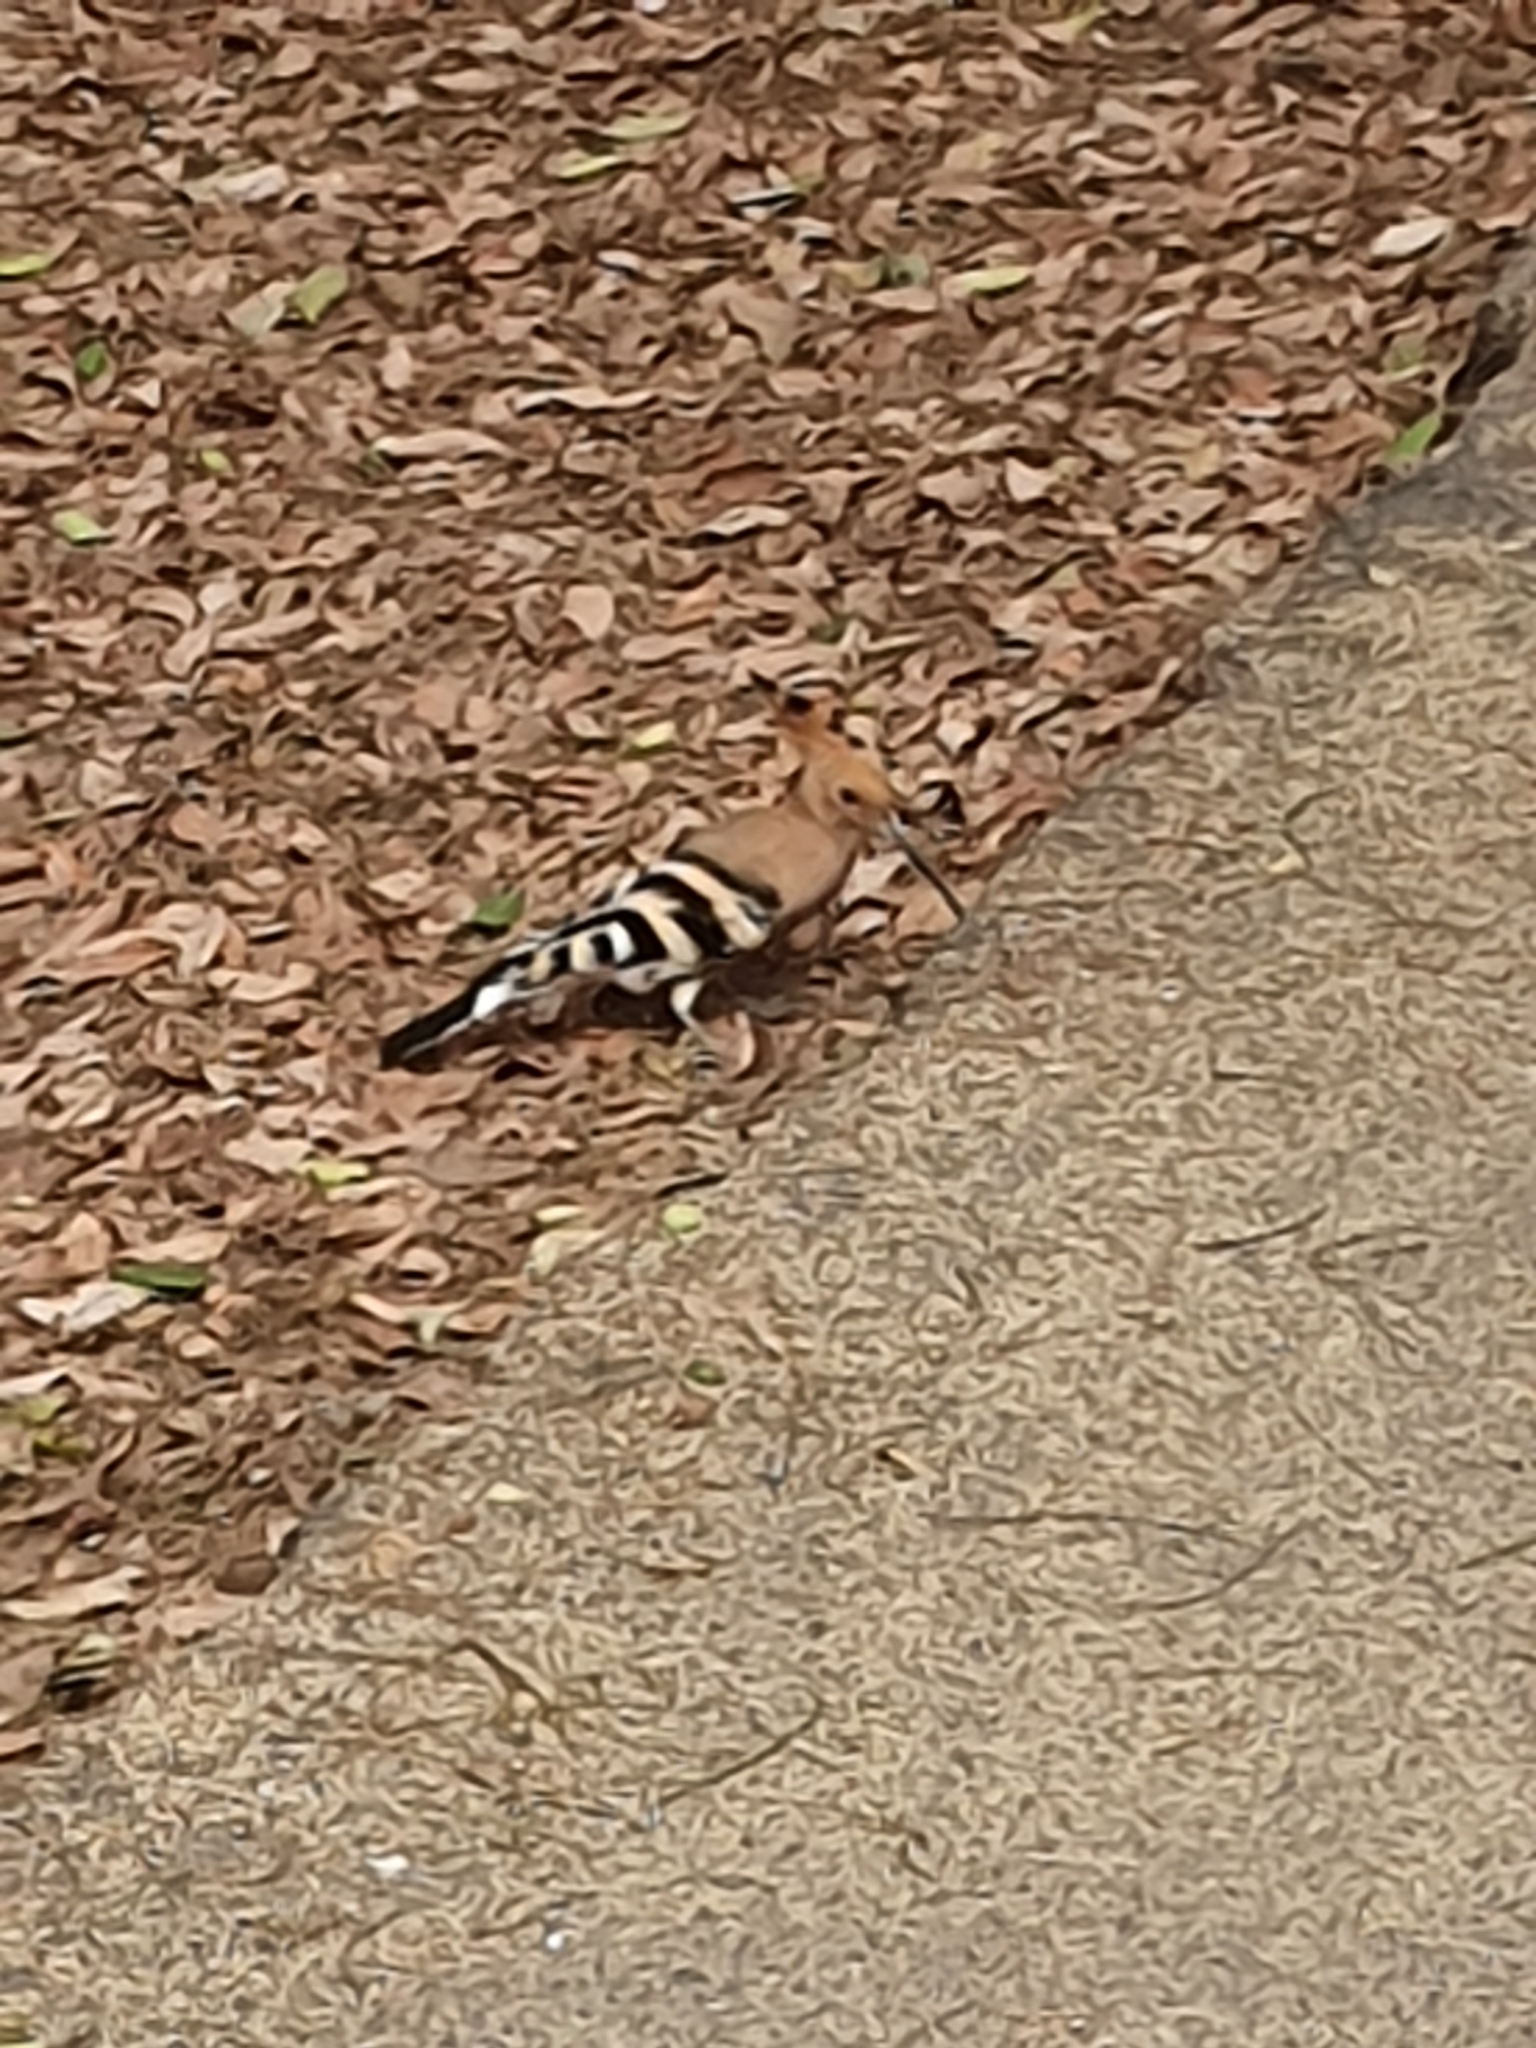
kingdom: Animalia
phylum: Chordata
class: Aves
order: Bucerotiformes
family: Upupidae
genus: Upupa
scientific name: Upupa epops
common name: Eurasian hoopoe
